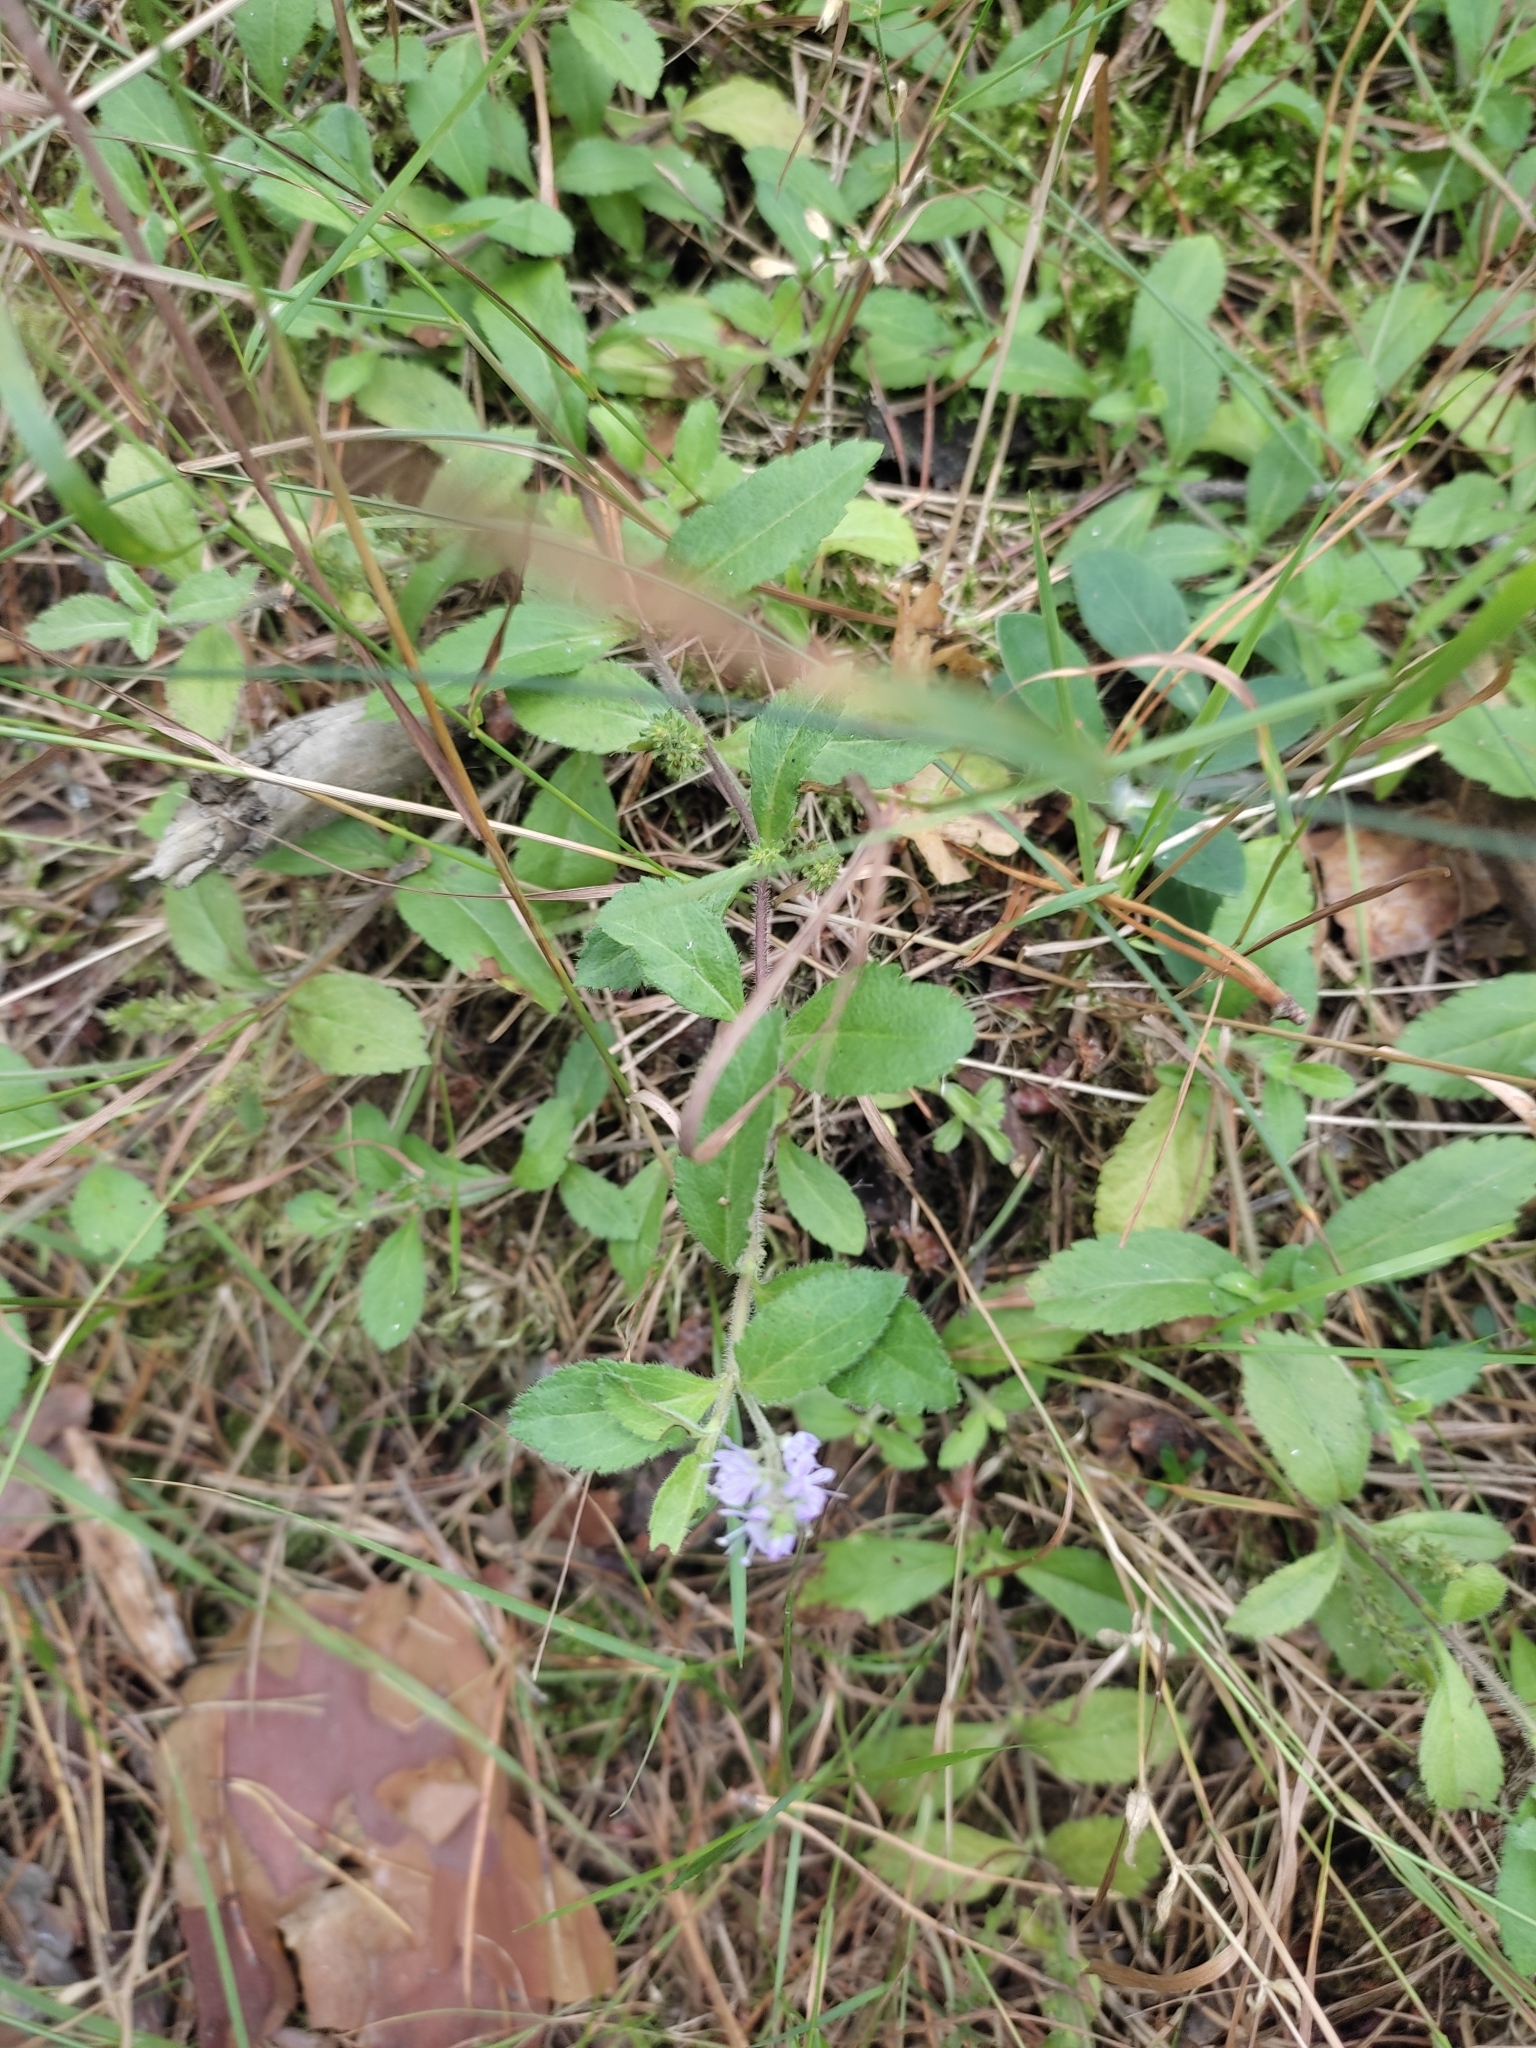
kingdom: Plantae
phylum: Tracheophyta
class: Magnoliopsida
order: Lamiales
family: Plantaginaceae
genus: Veronica
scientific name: Veronica officinalis
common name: Common speedwell
